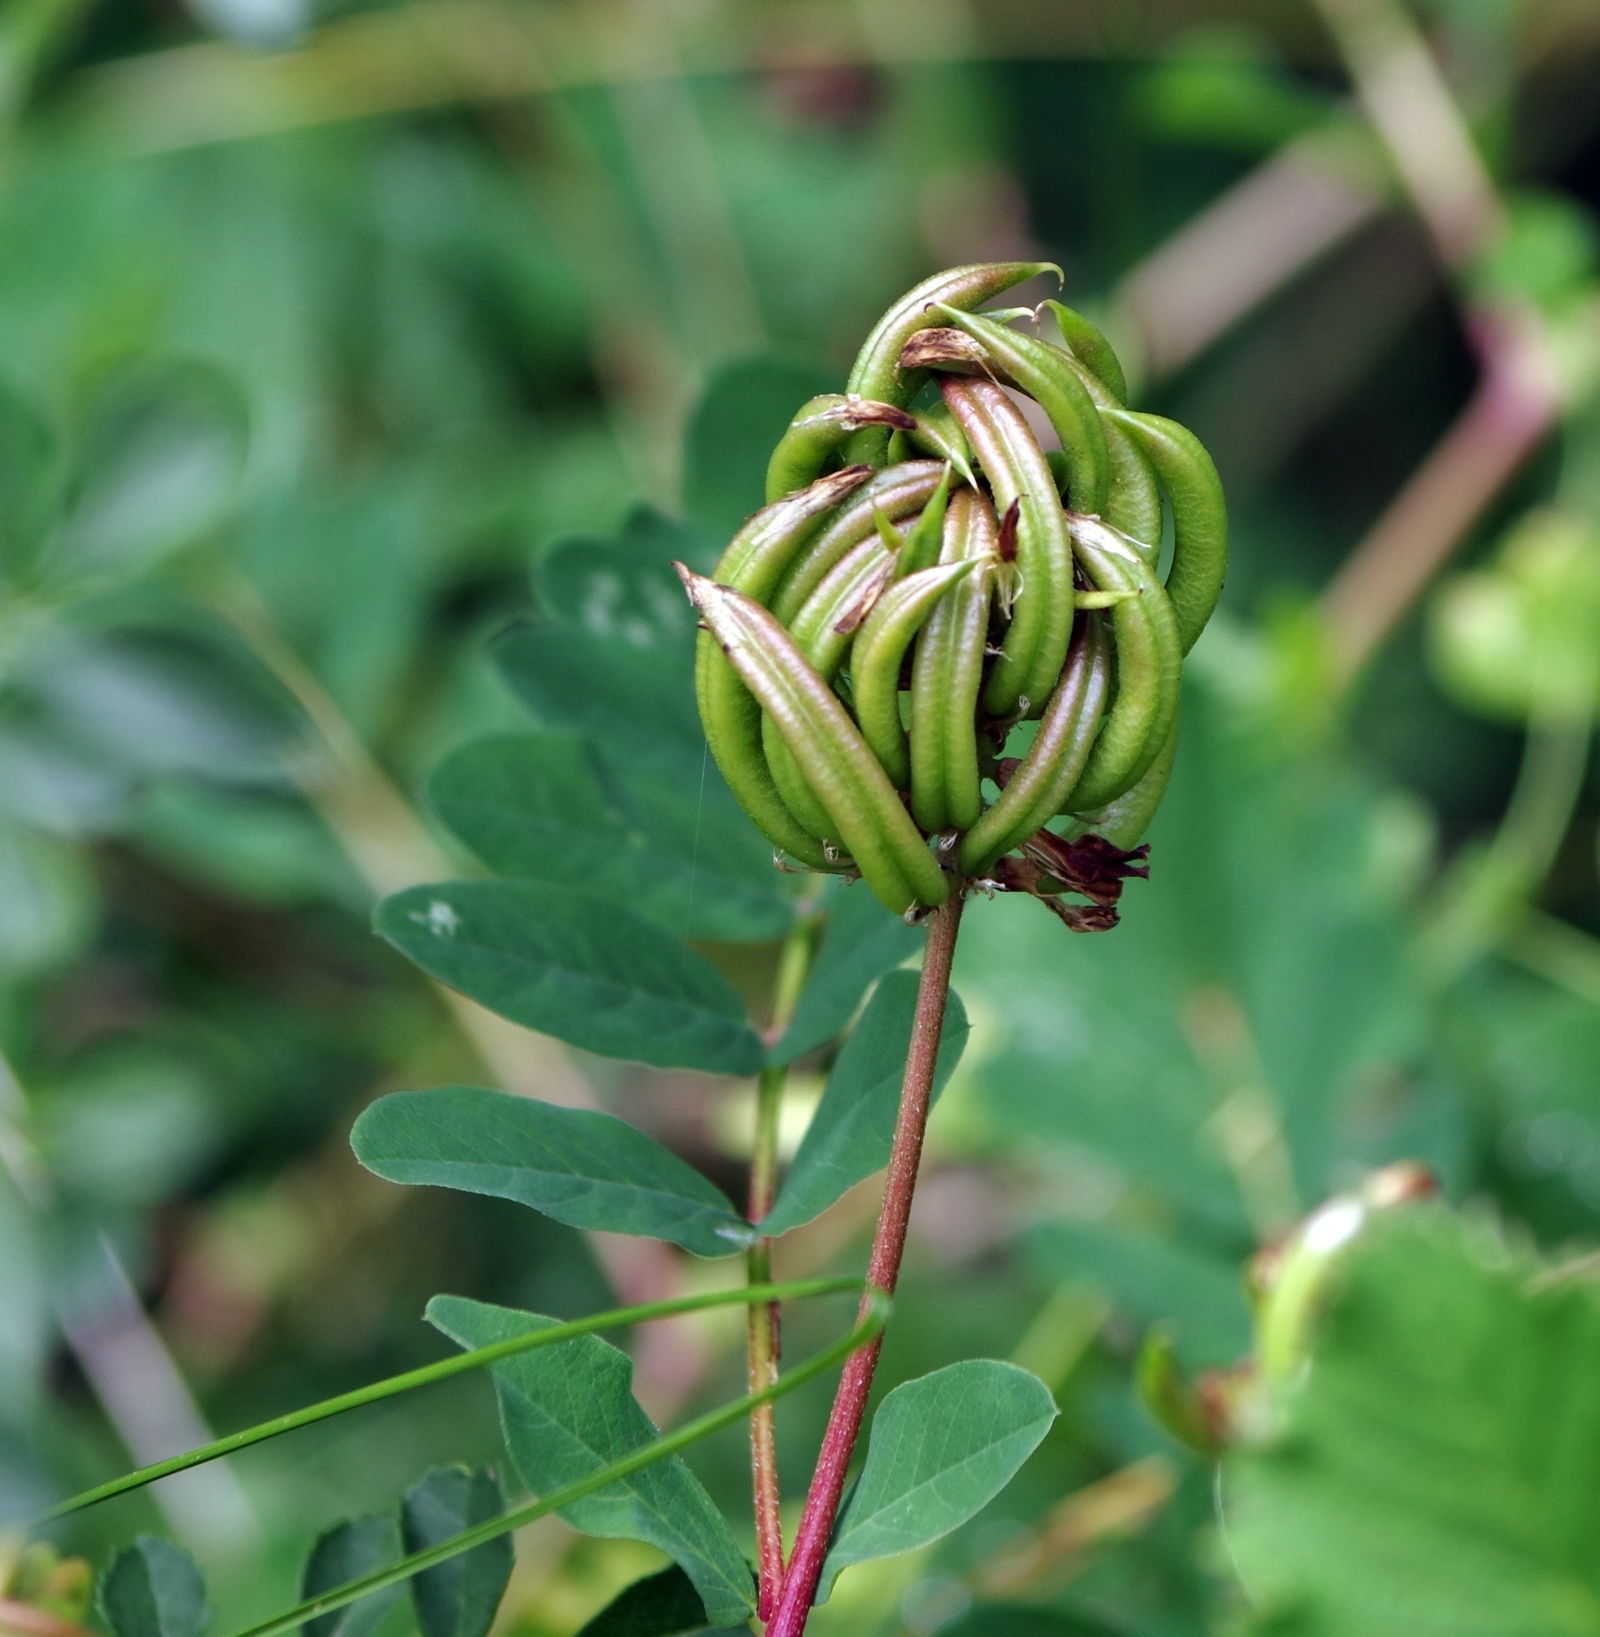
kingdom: Plantae
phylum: Tracheophyta
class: Magnoliopsida
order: Fabales
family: Fabaceae
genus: Astragalus
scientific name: Astragalus glycyphyllos
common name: Wild liquorice
